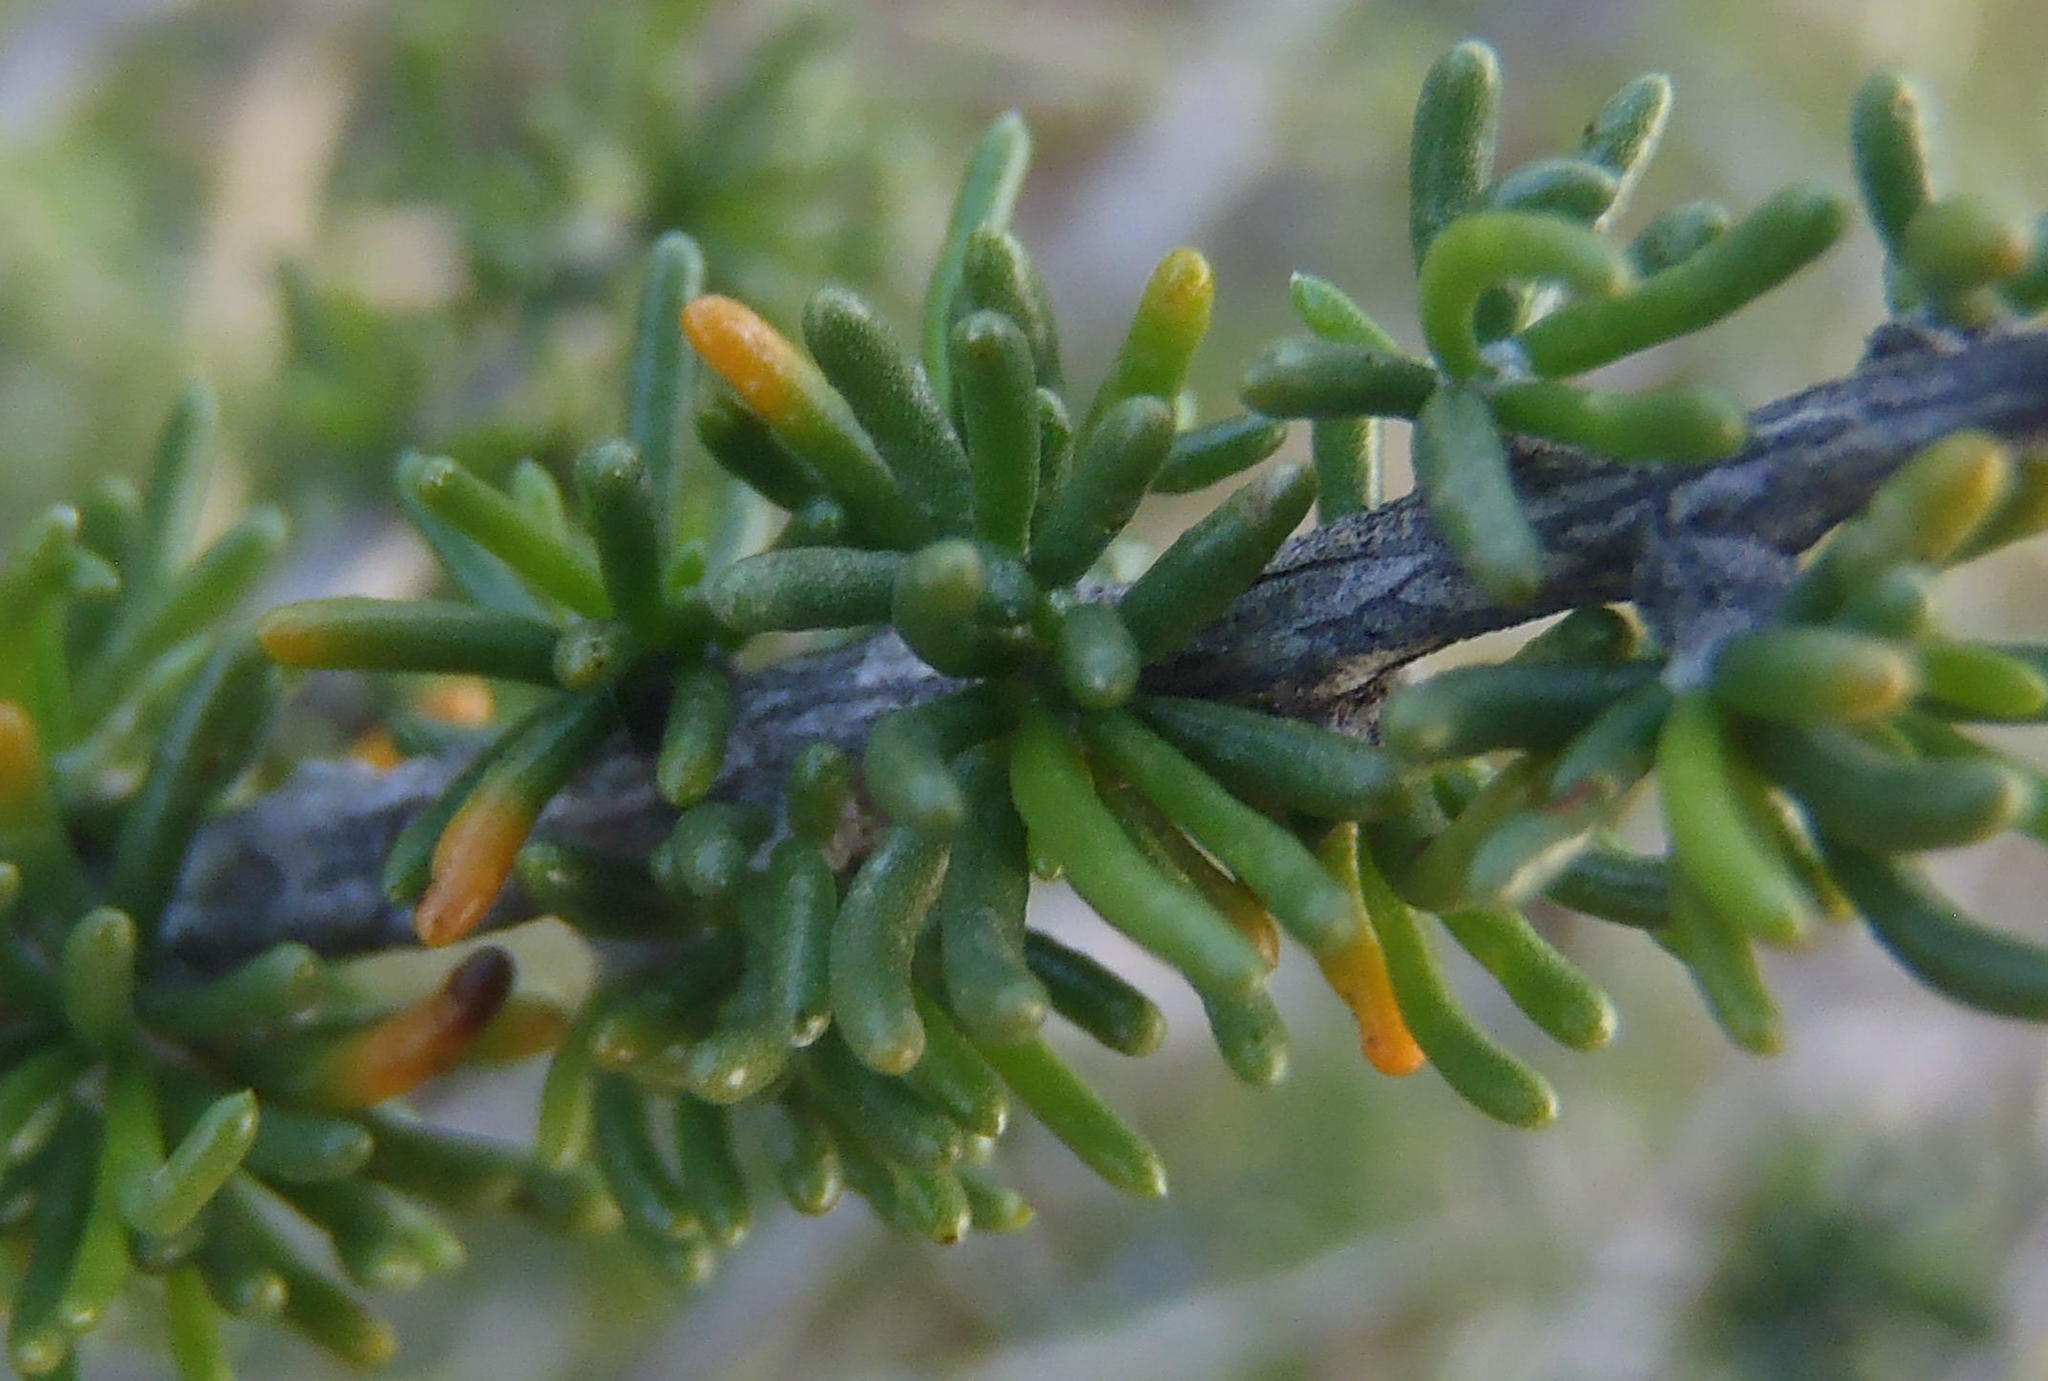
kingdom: Plantae
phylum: Tracheophyta
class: Magnoliopsida
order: Fabales
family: Fabaceae
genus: Aspalathus
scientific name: Aspalathus lactea
